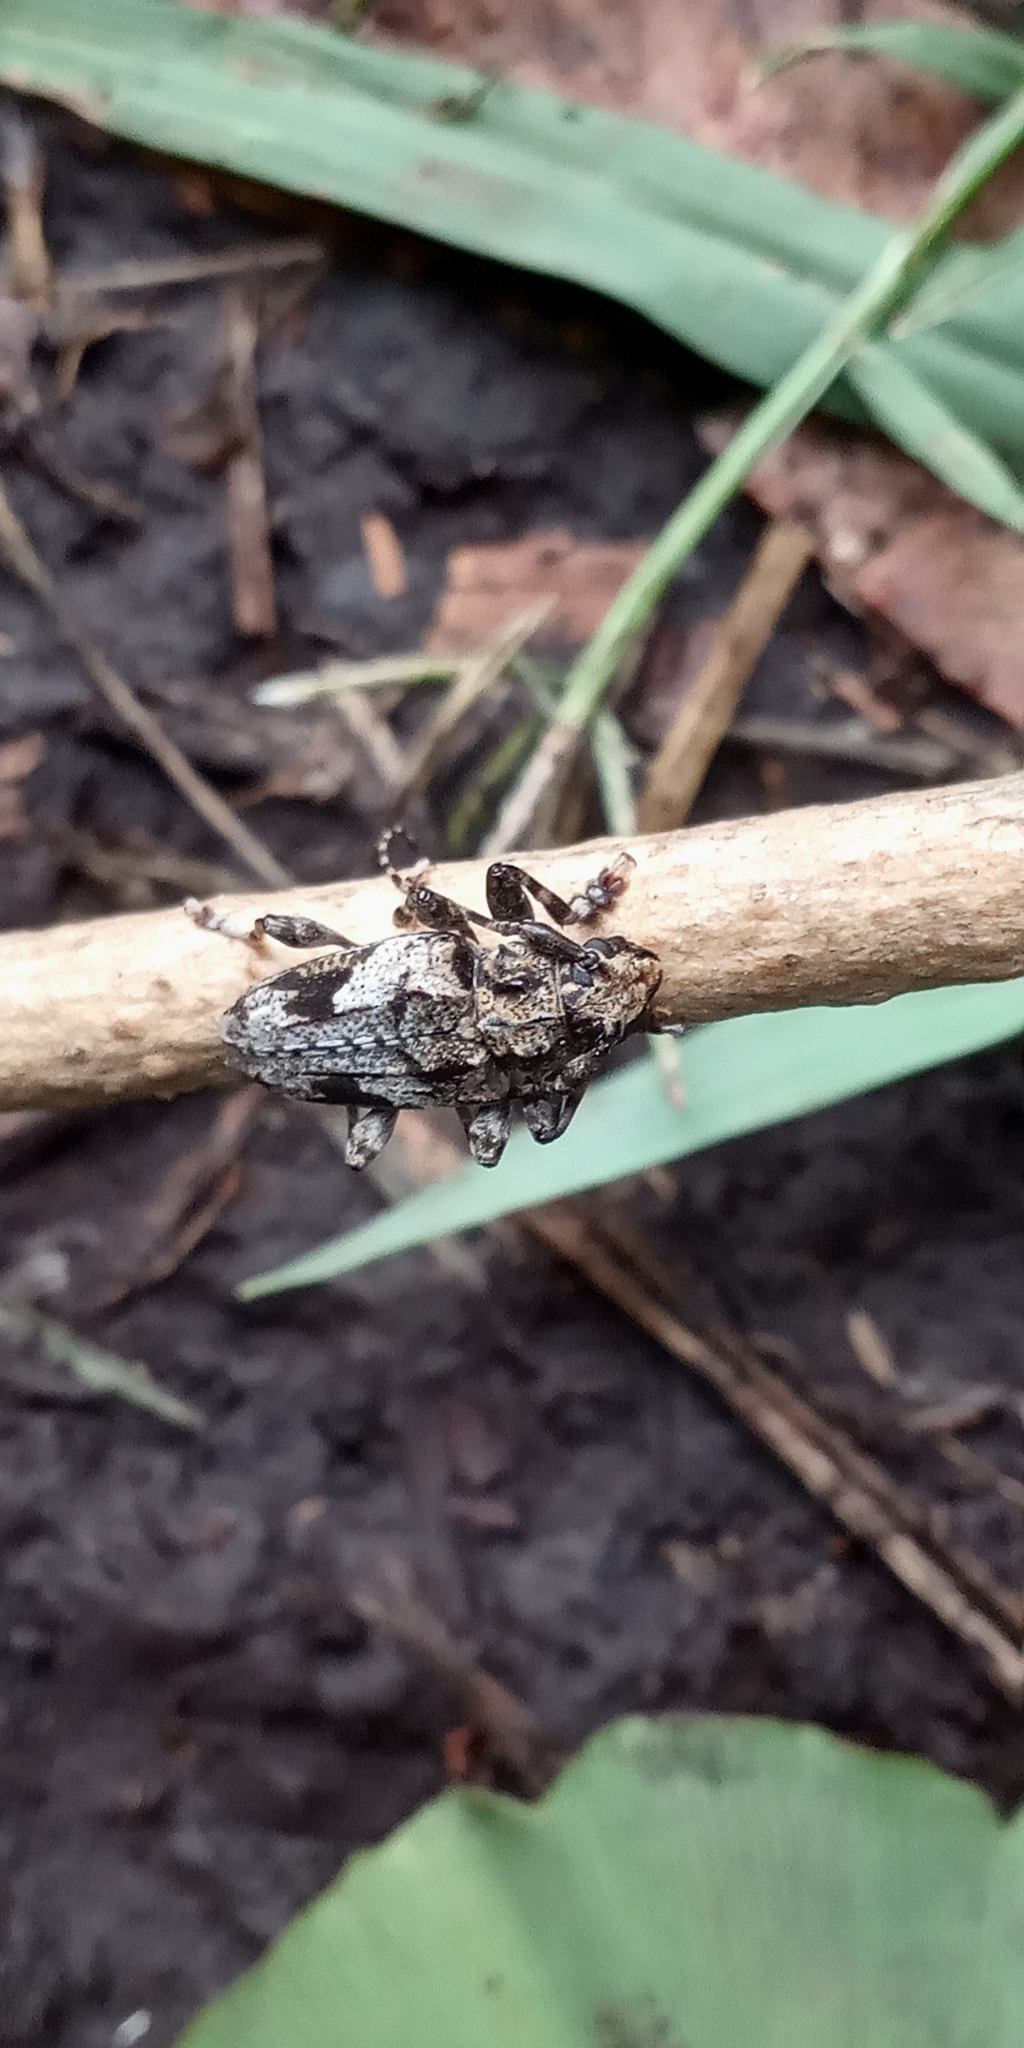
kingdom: Animalia
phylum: Arthropoda
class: Insecta
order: Coleoptera
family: Cerambycidae
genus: Psapharochrus
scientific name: Psapharochrus jaspideus
